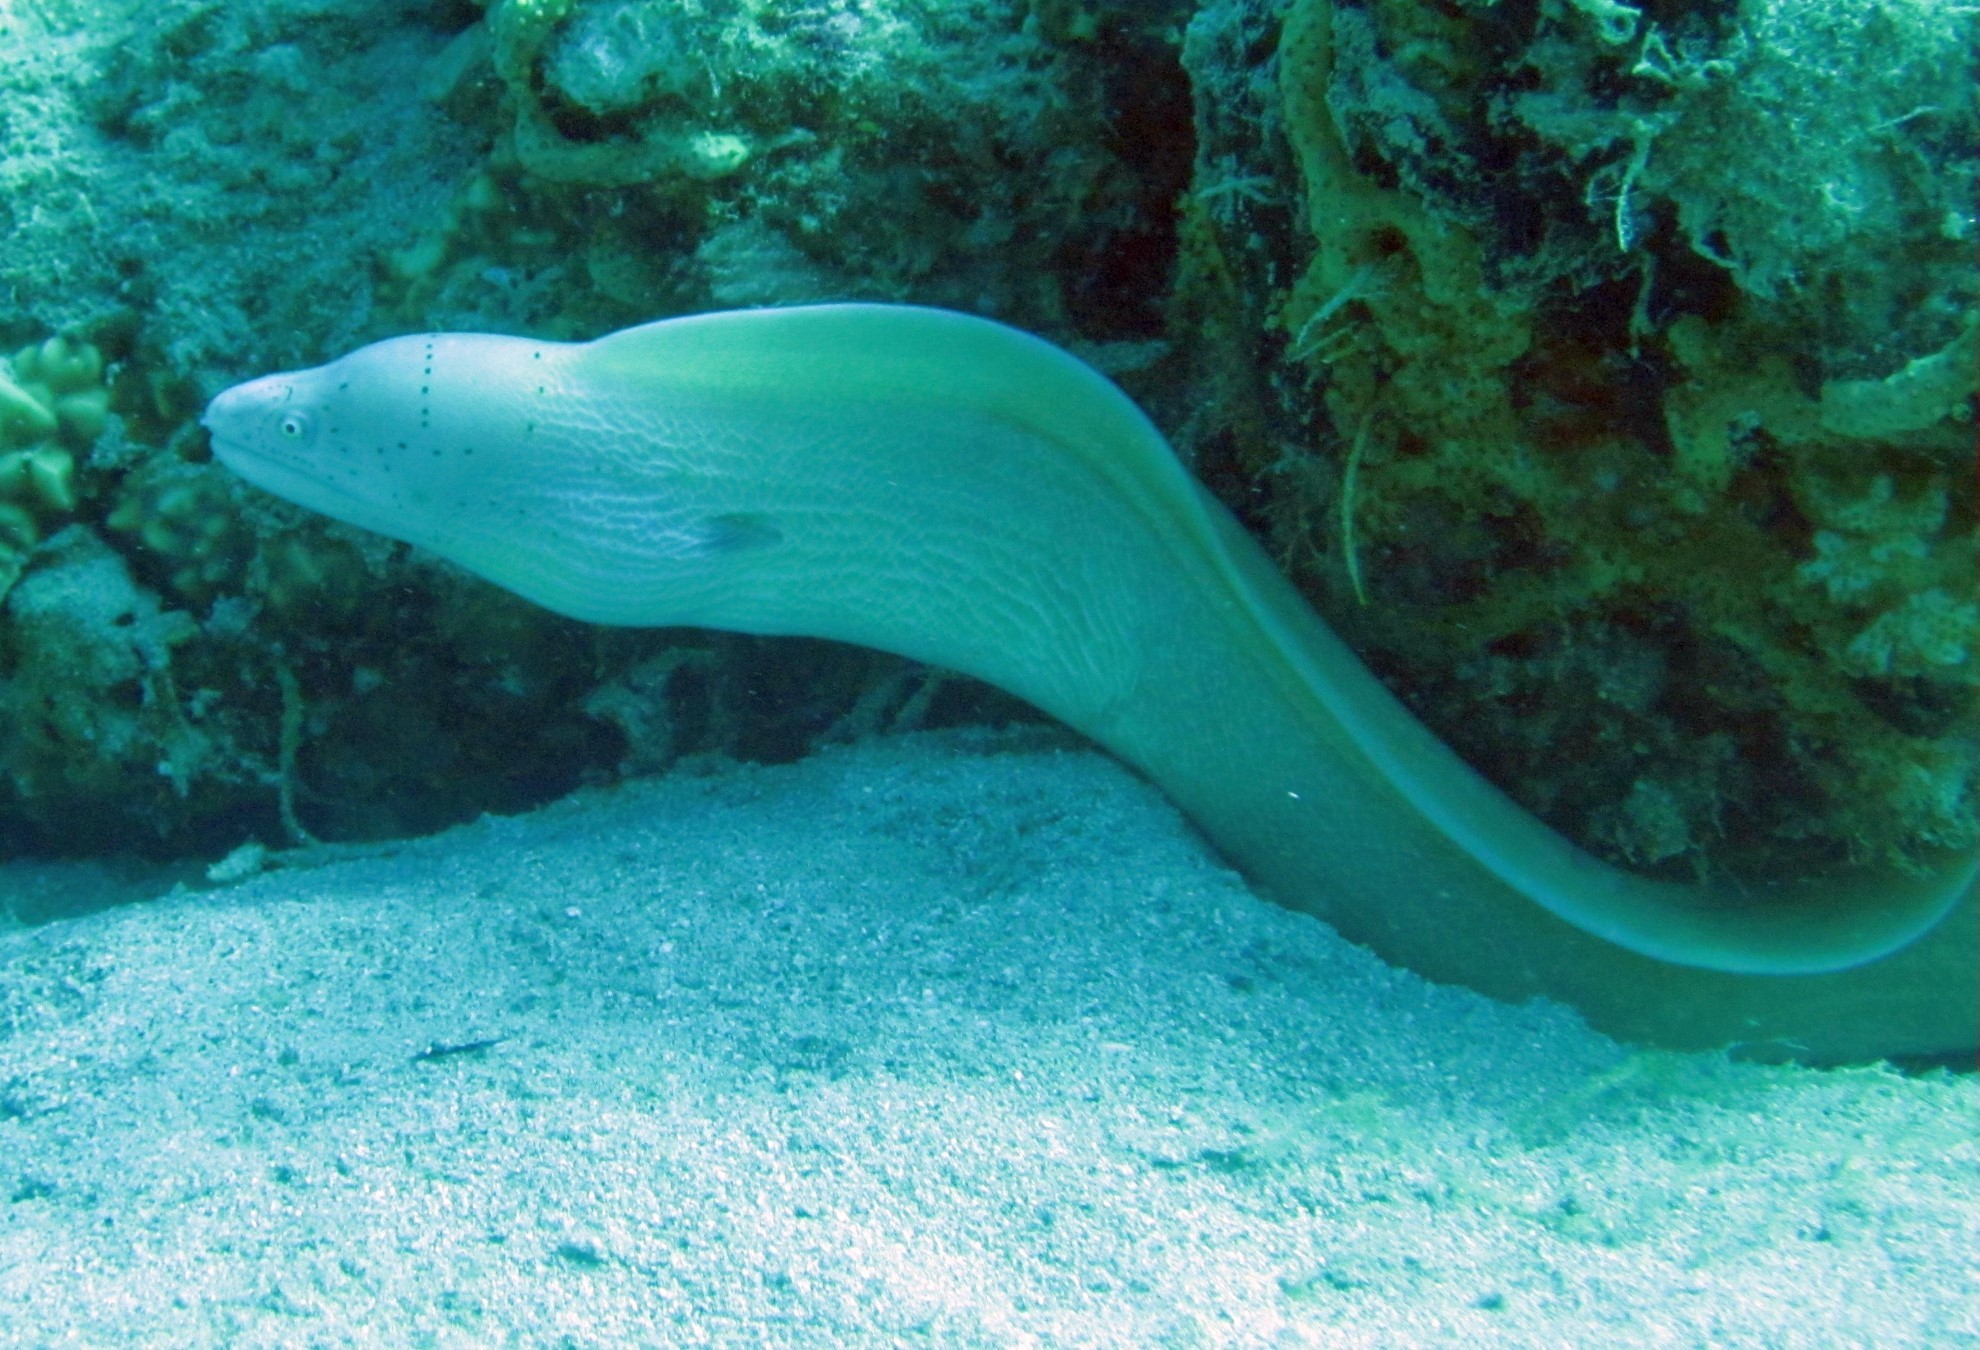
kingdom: Animalia
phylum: Chordata
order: Anguilliformes
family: Muraenidae
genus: Gymnothorax
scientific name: Gymnothorax griseus
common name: Geometric moray
